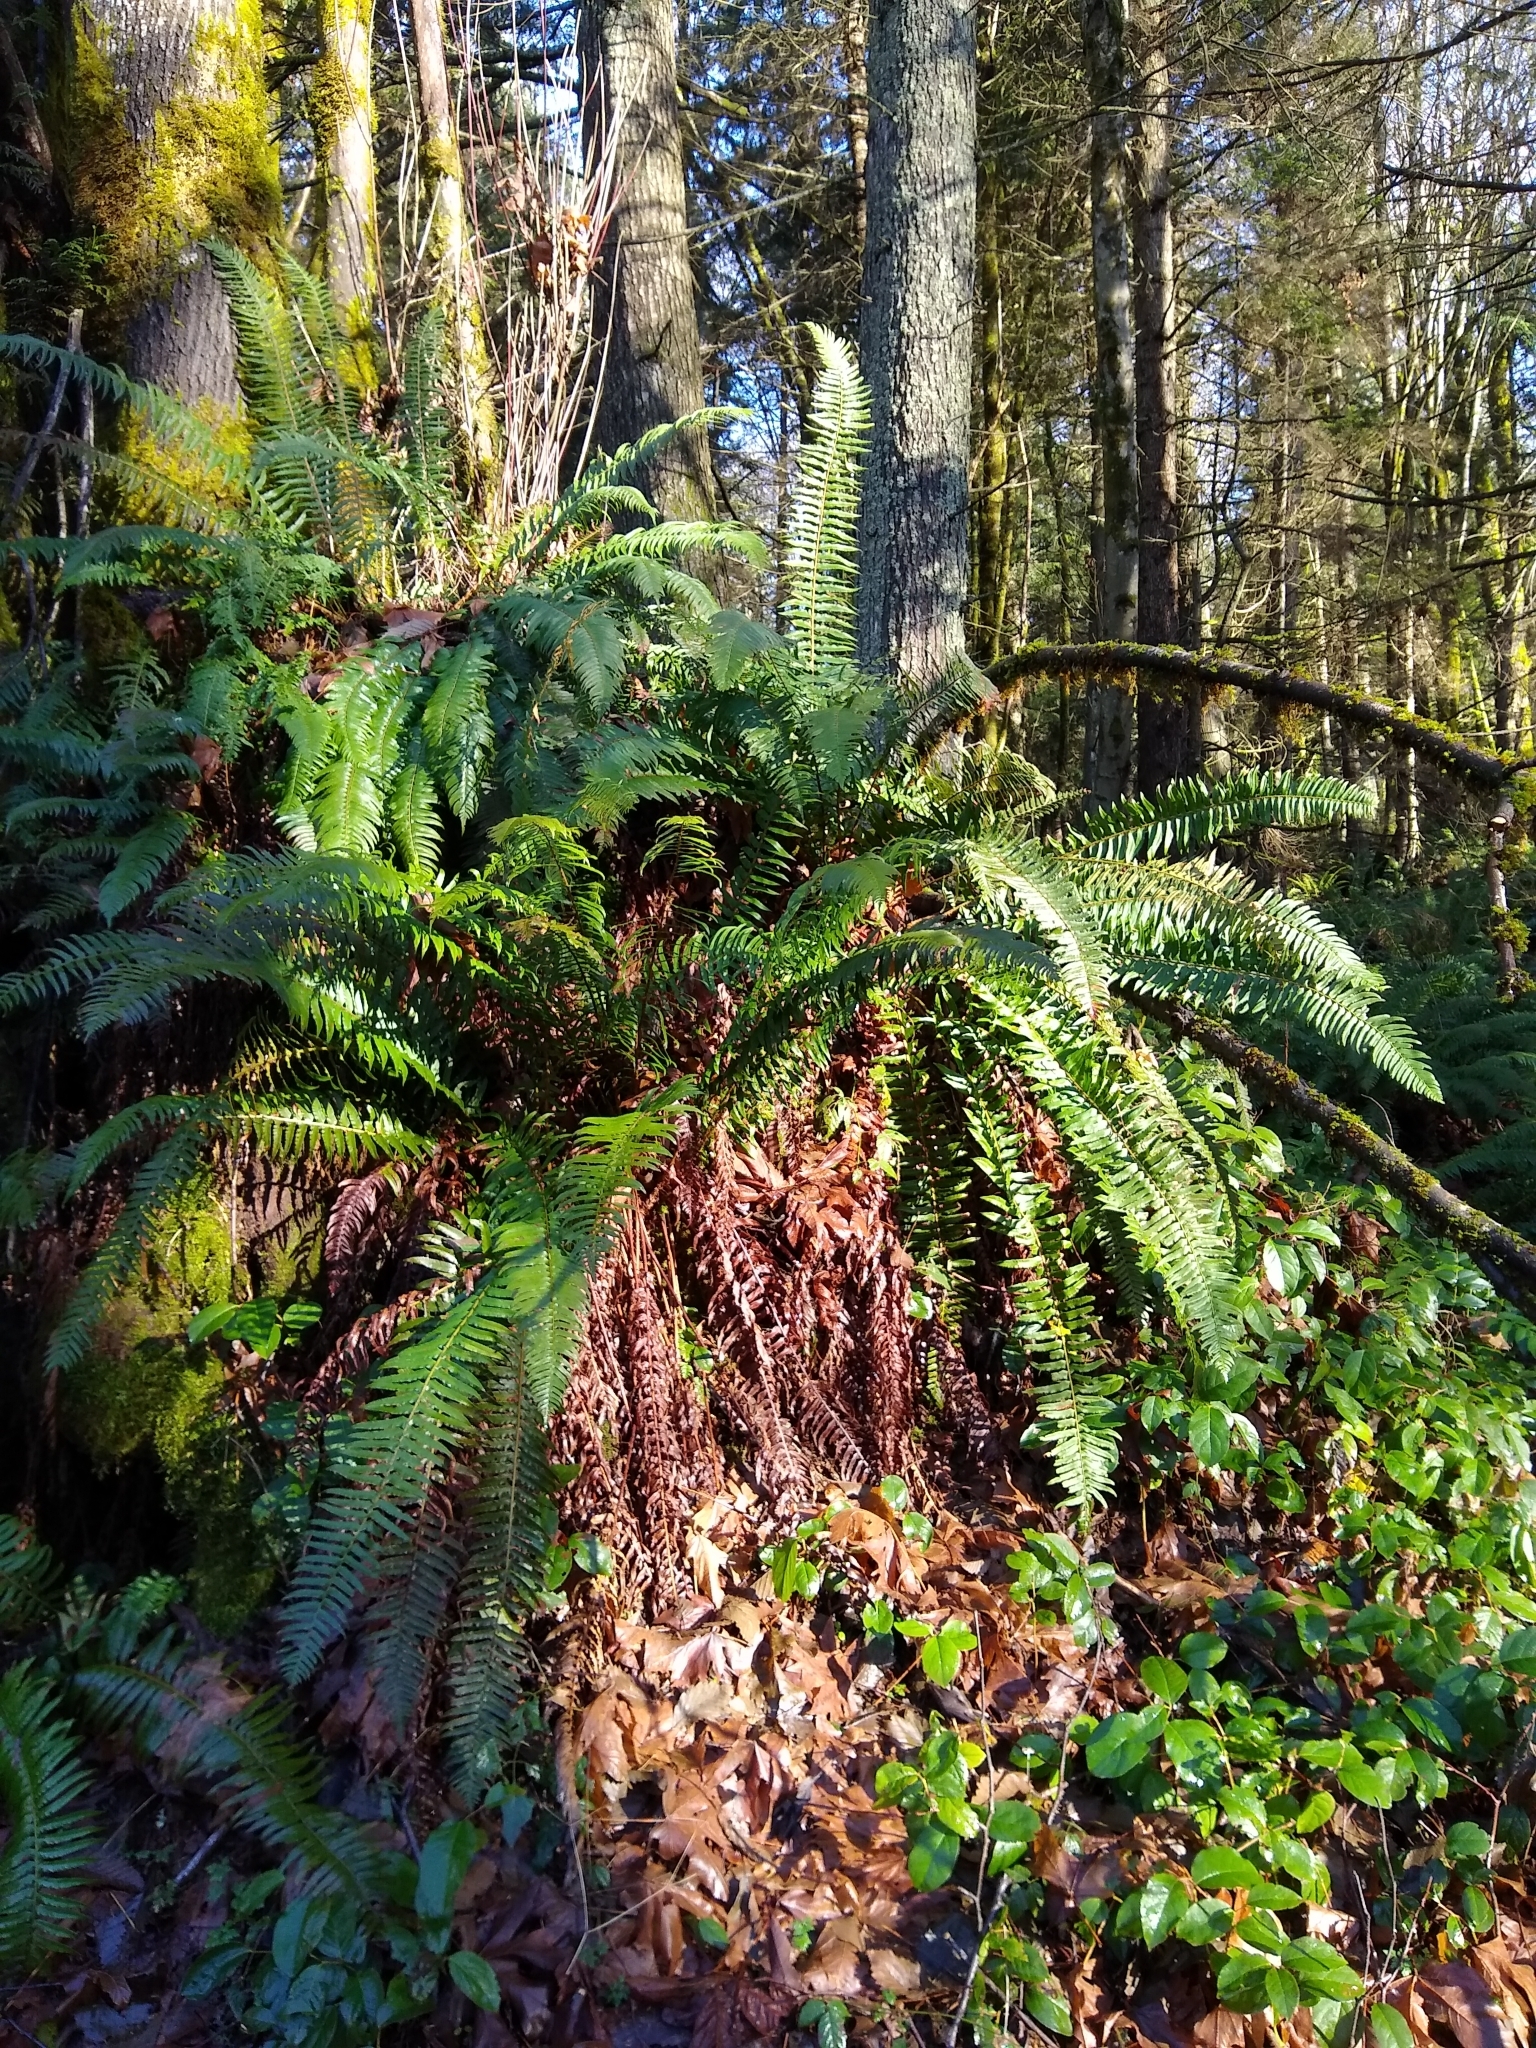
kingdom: Plantae
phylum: Tracheophyta
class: Polypodiopsida
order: Polypodiales
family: Dryopteridaceae
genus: Polystichum
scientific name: Polystichum munitum
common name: Western sword-fern
